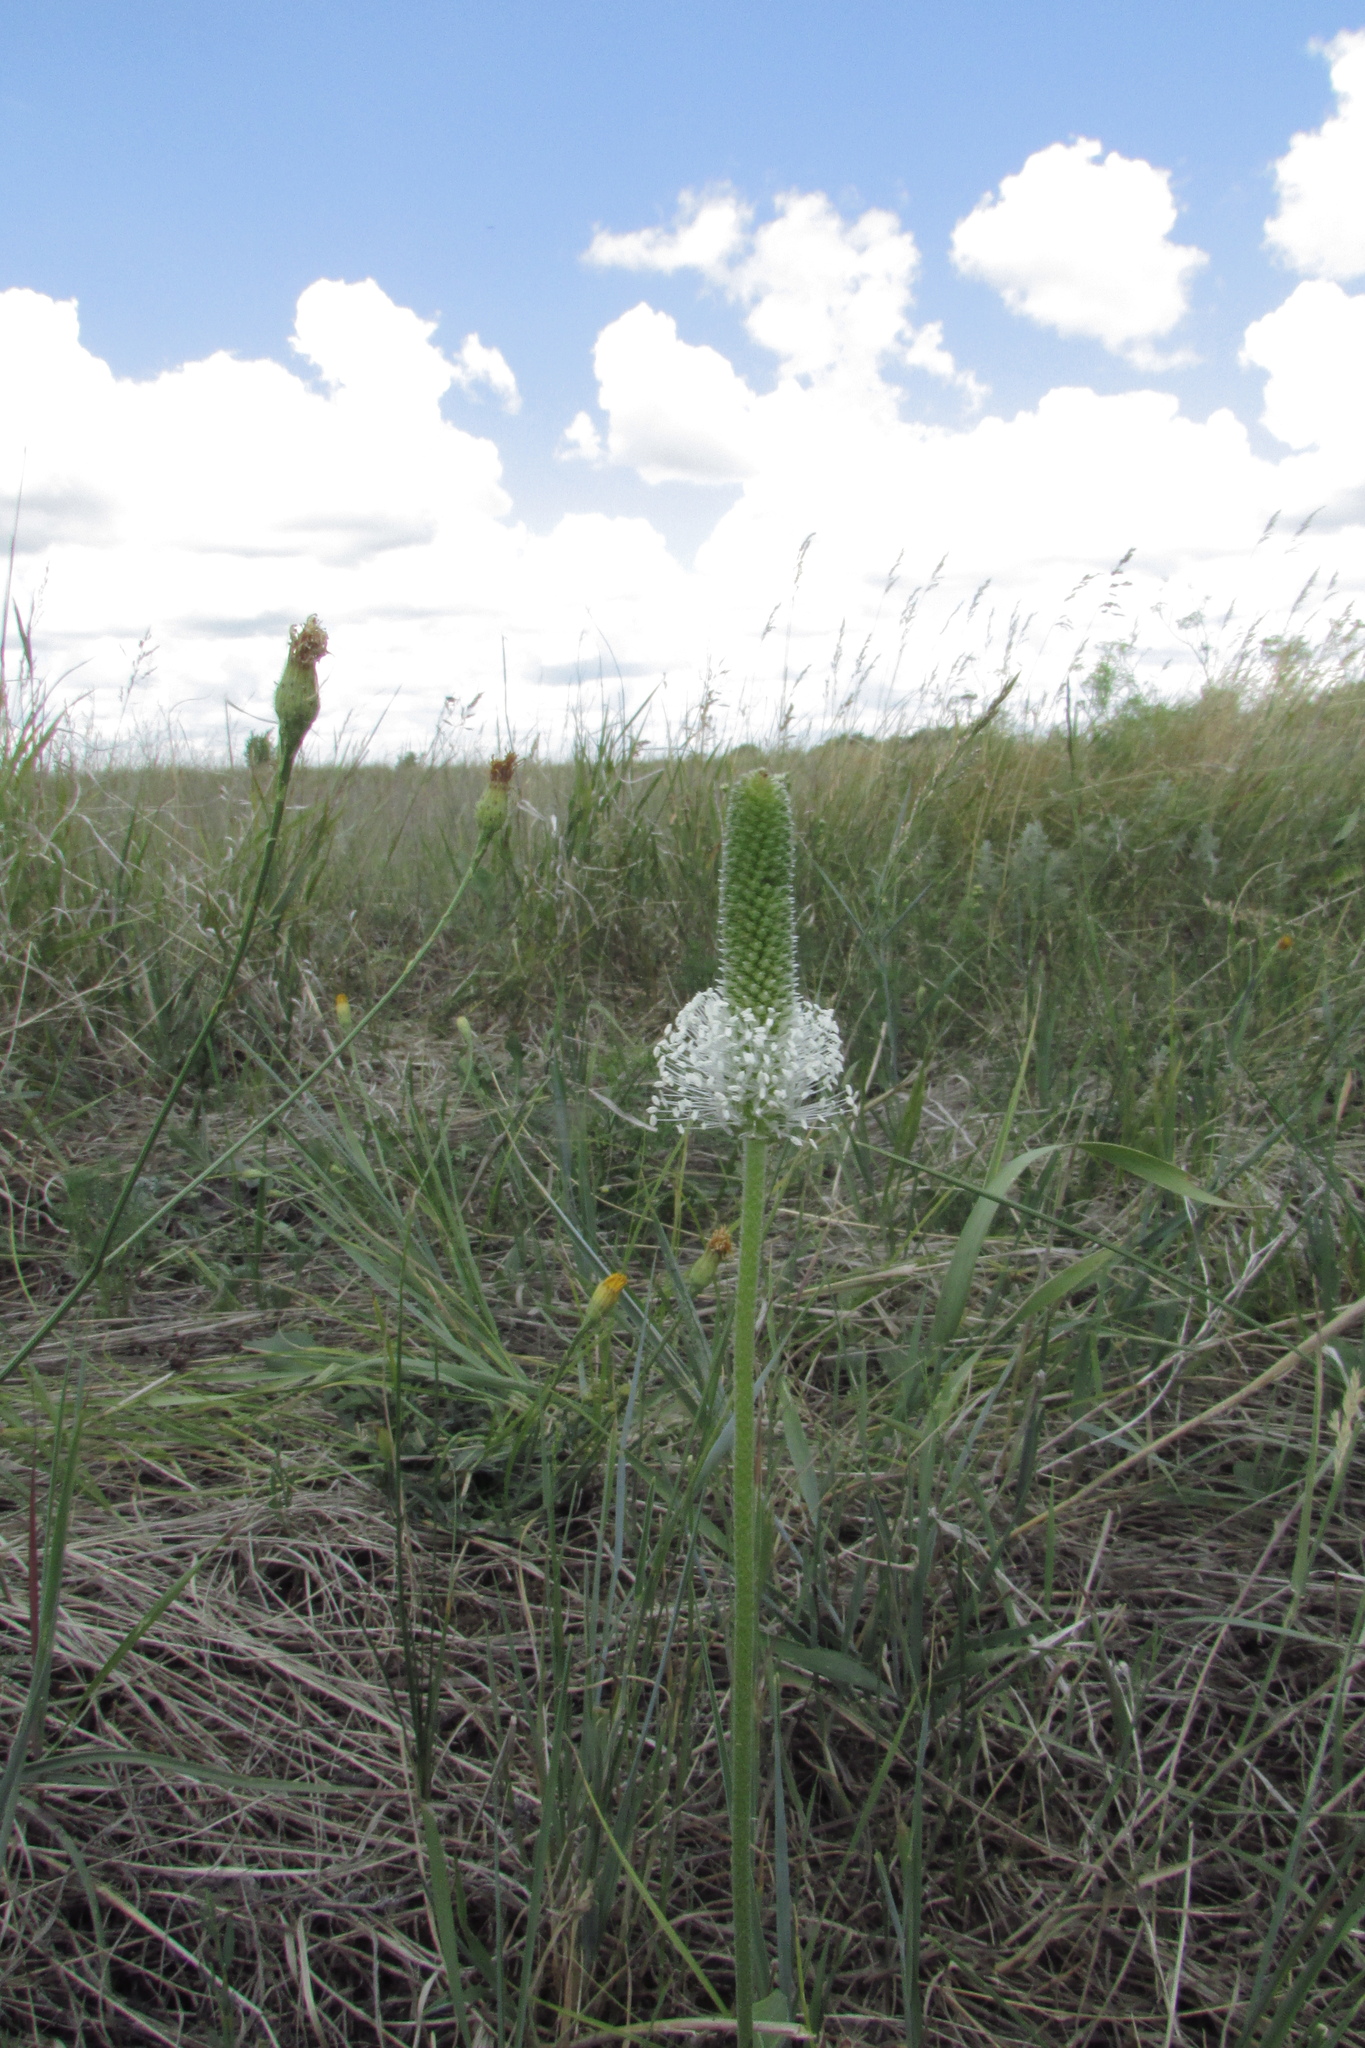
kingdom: Plantae
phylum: Tracheophyta
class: Magnoliopsida
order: Lamiales
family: Plantaginaceae
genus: Plantago
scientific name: Plantago maxima
